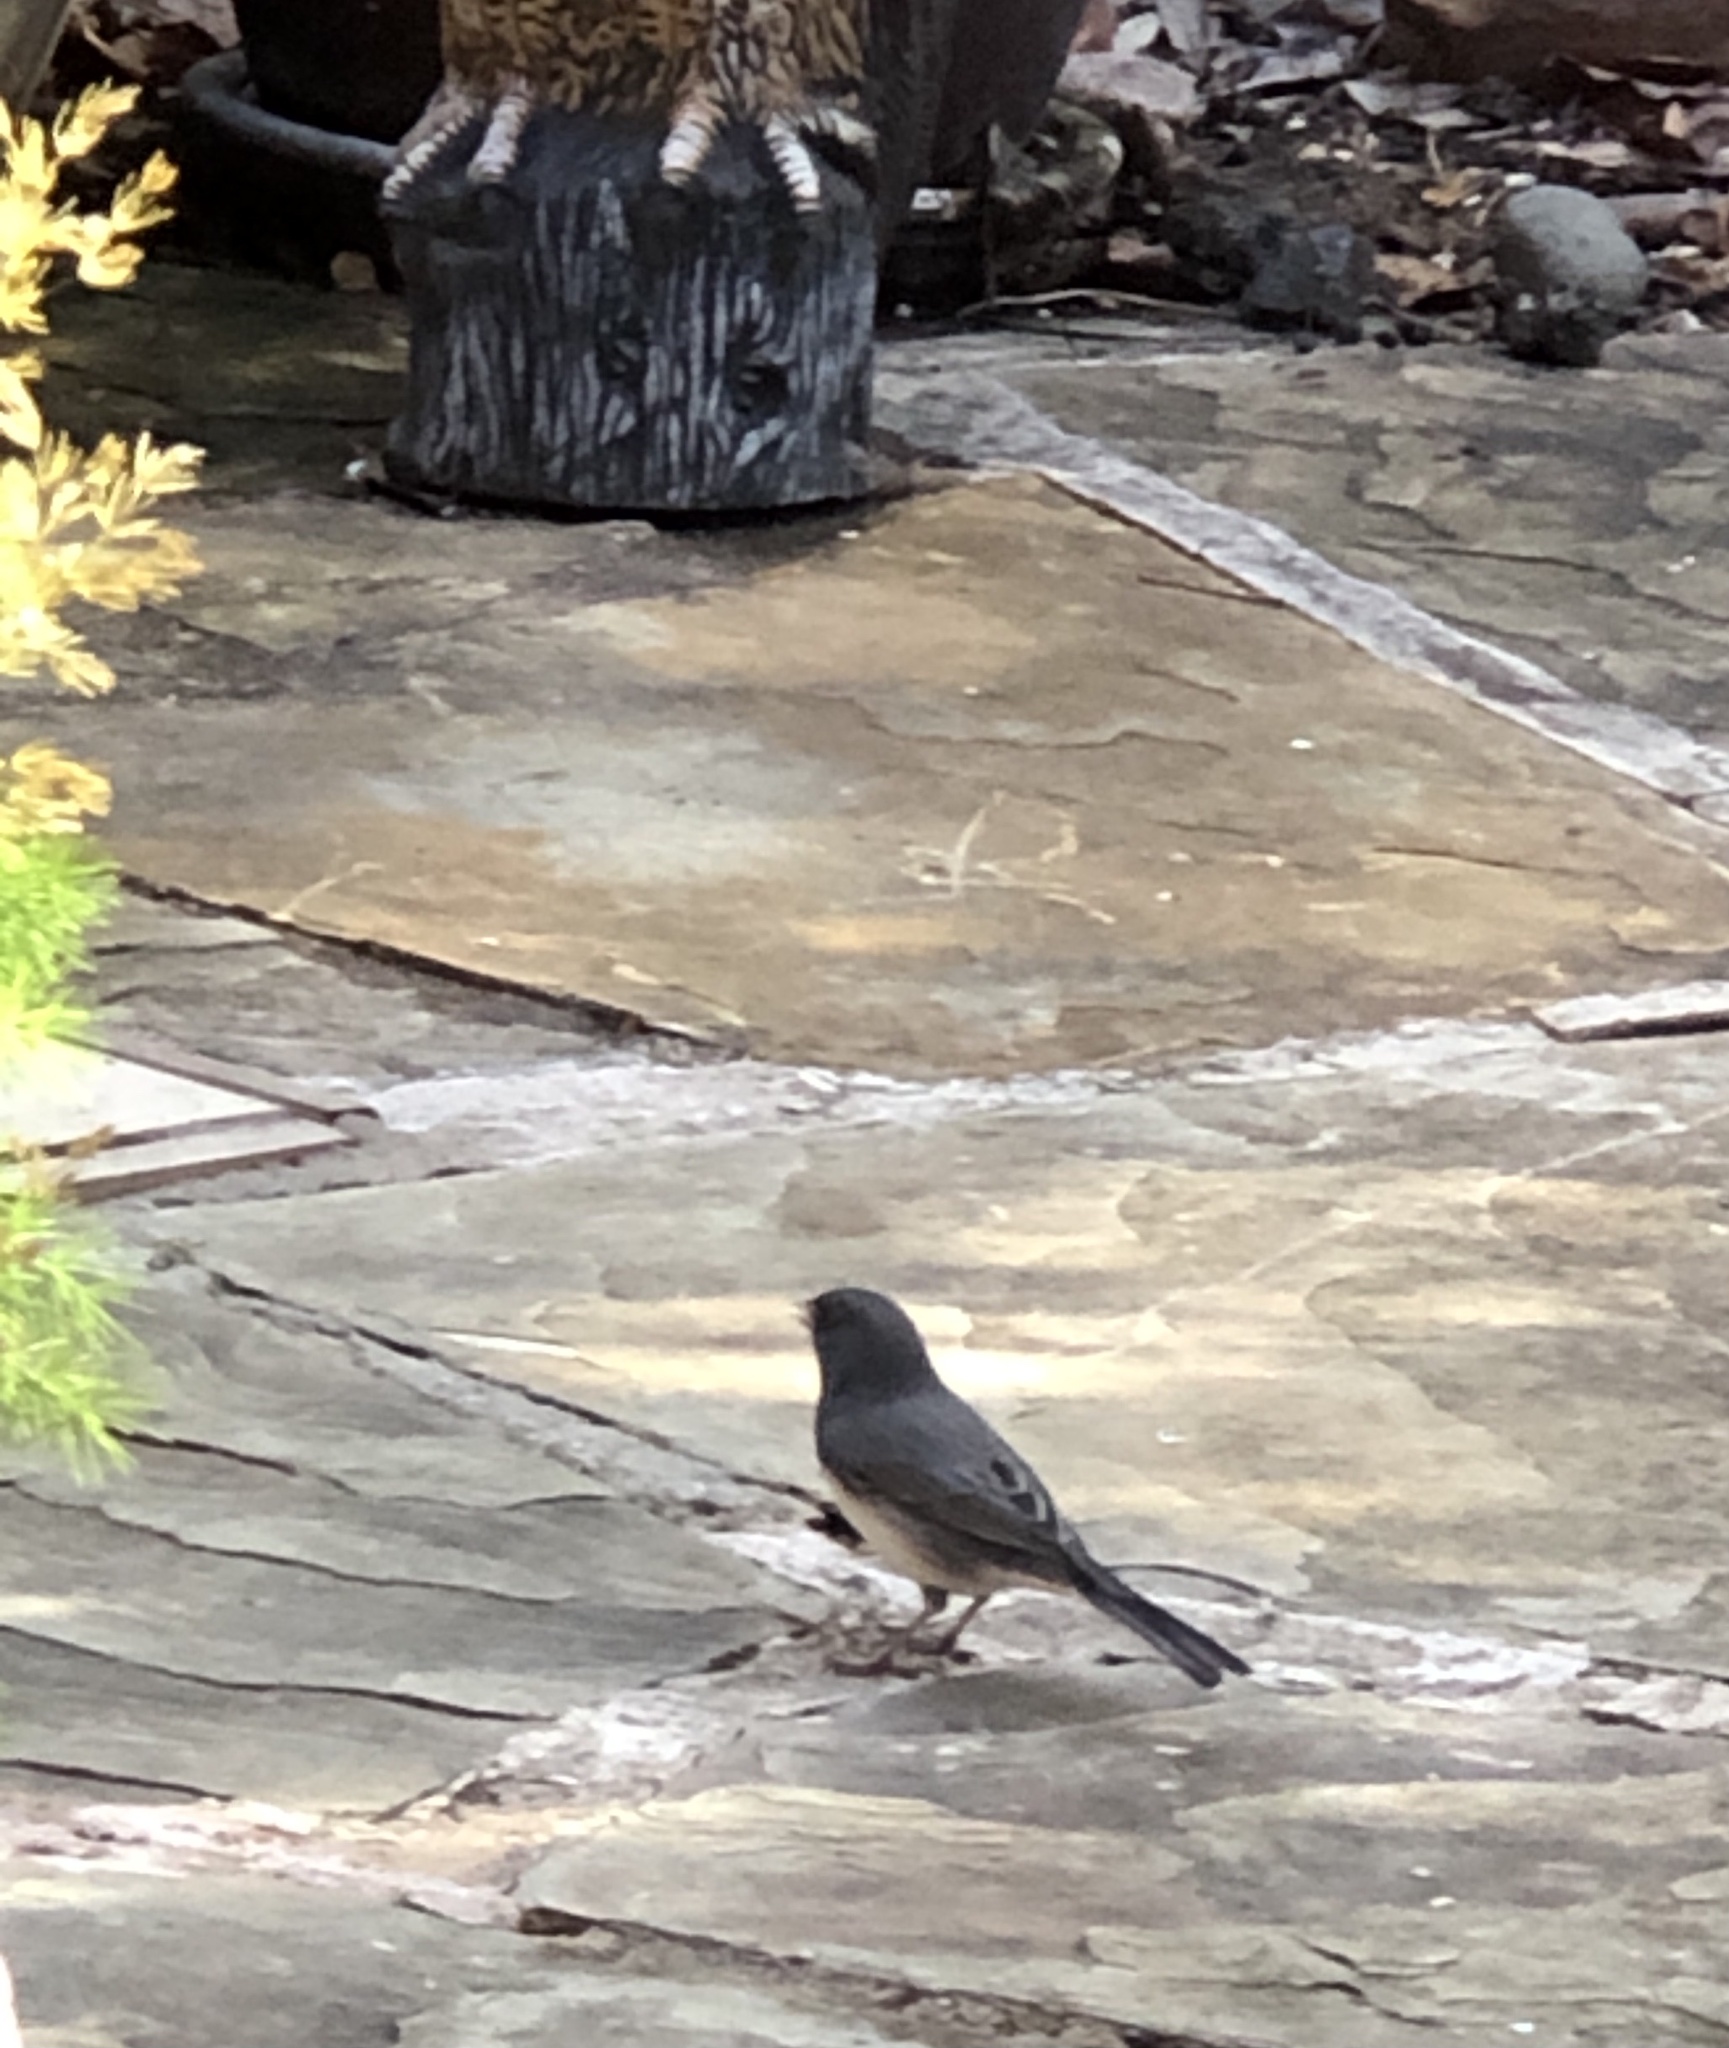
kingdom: Animalia
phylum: Chordata
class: Aves
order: Passeriformes
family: Passerellidae
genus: Junco
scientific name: Junco hyemalis
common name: Dark-eyed junco
